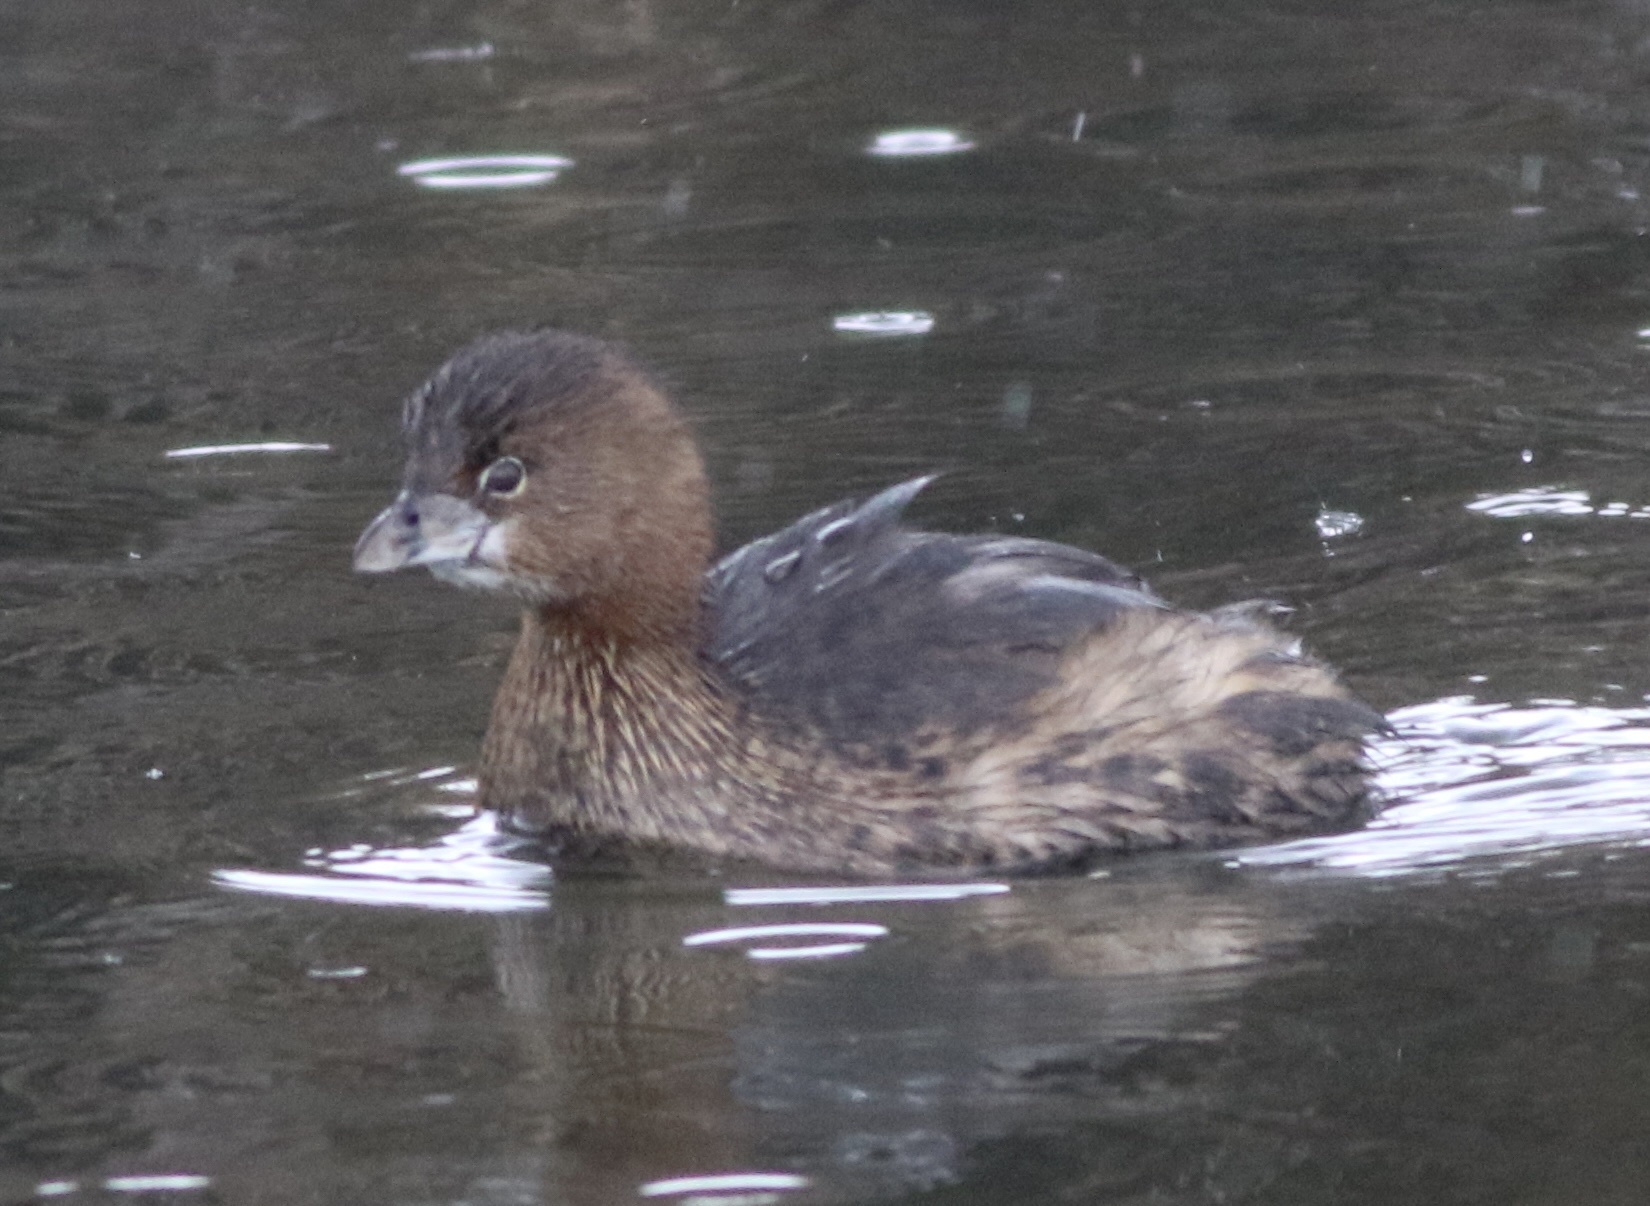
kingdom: Animalia
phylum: Chordata
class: Aves
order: Podicipediformes
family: Podicipedidae
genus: Podilymbus
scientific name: Podilymbus podiceps
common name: Pied-billed grebe
